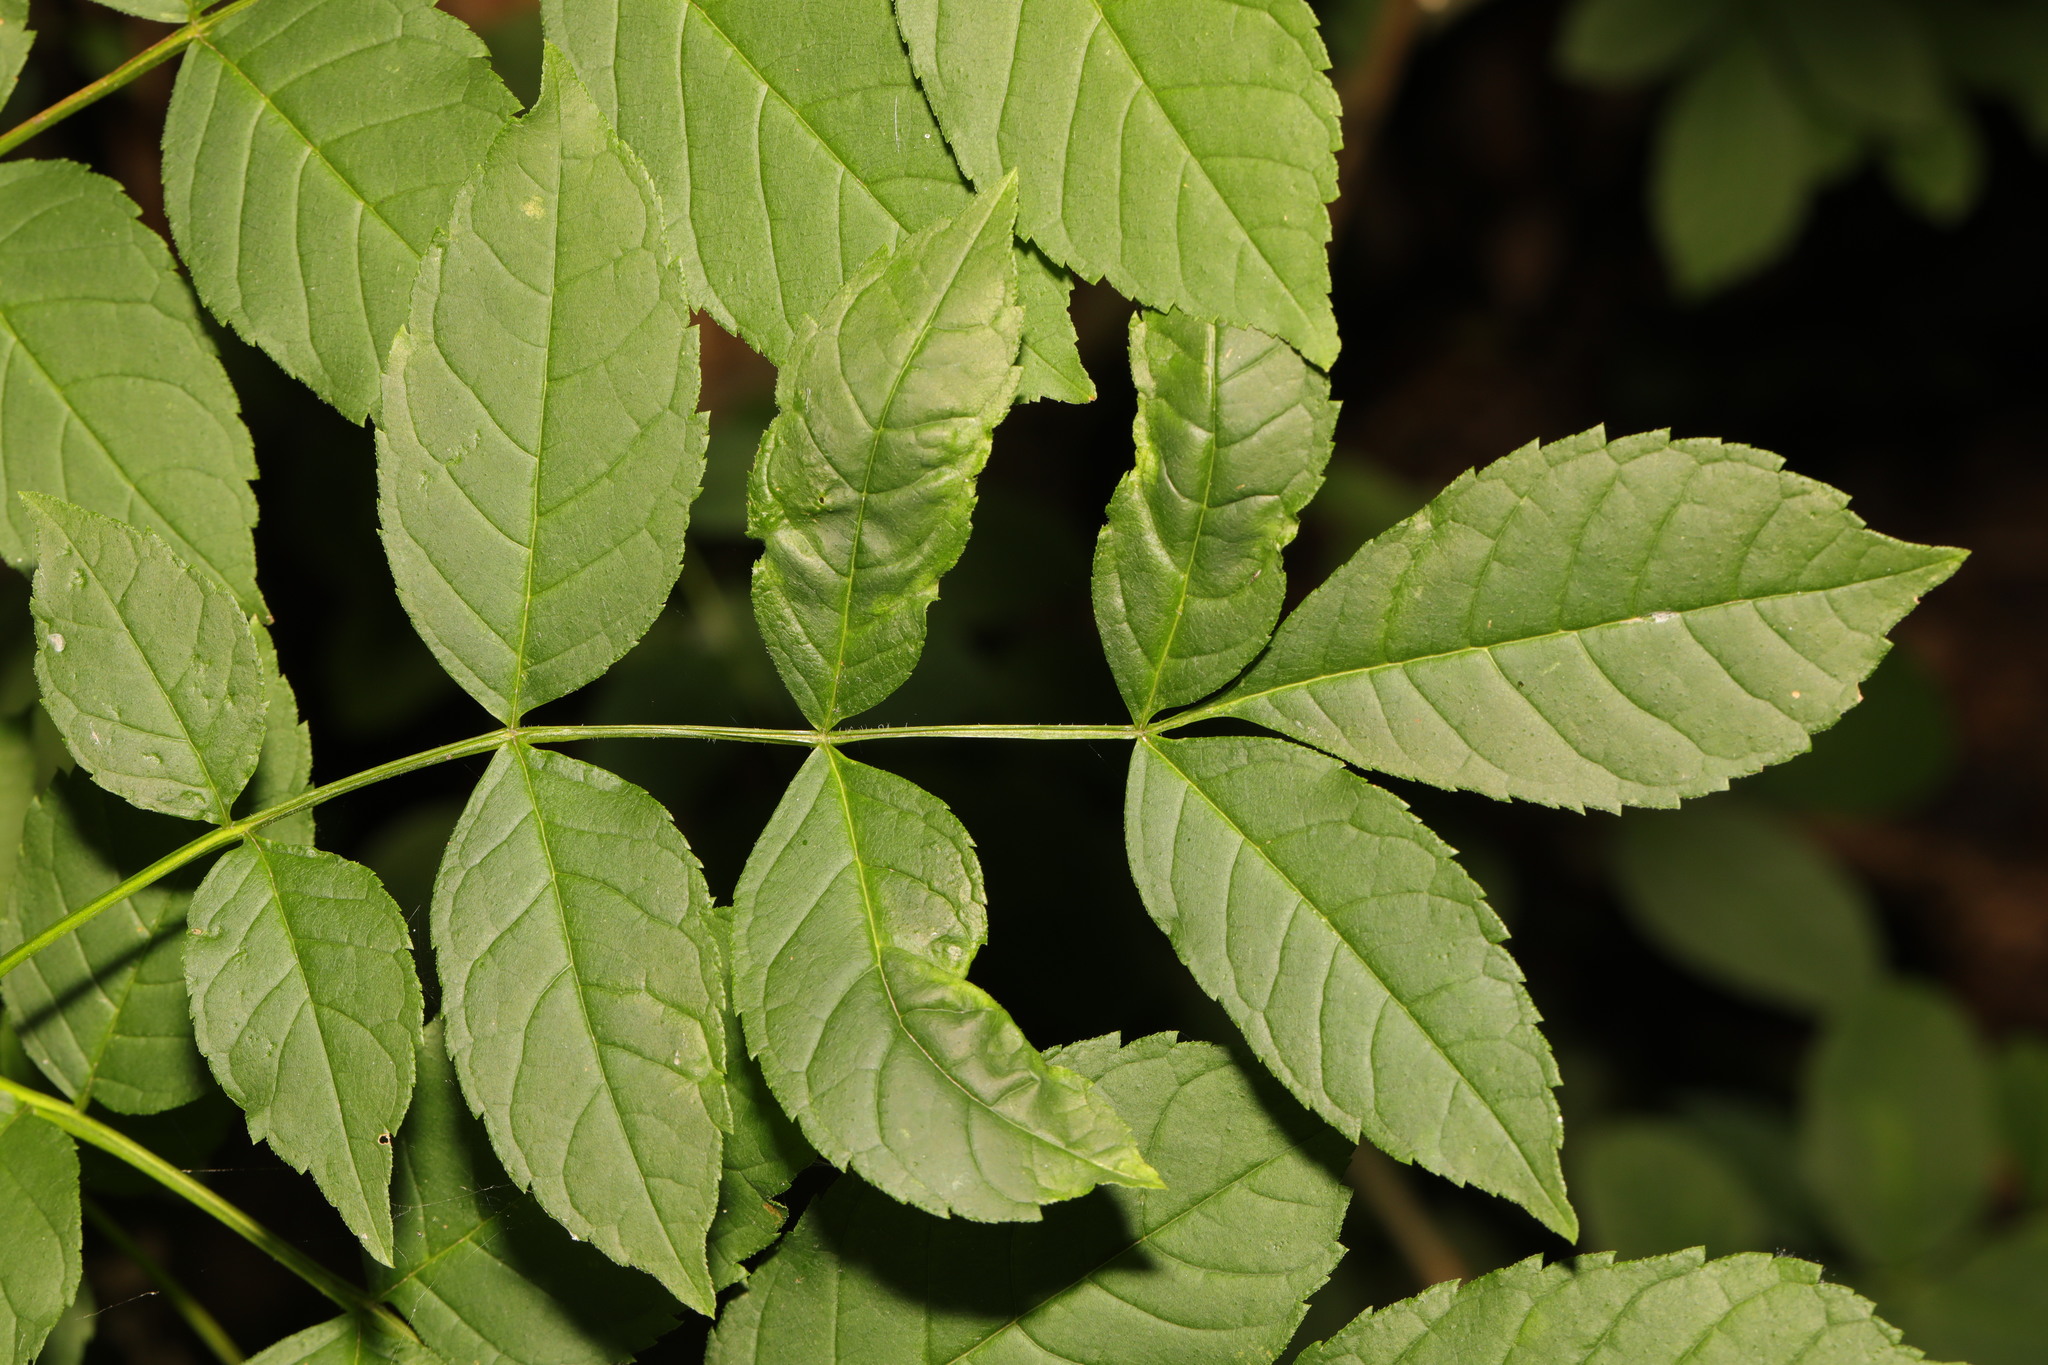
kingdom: Plantae
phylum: Tracheophyta
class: Magnoliopsida
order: Lamiales
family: Oleaceae
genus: Fraxinus
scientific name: Fraxinus excelsior
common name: European ash
